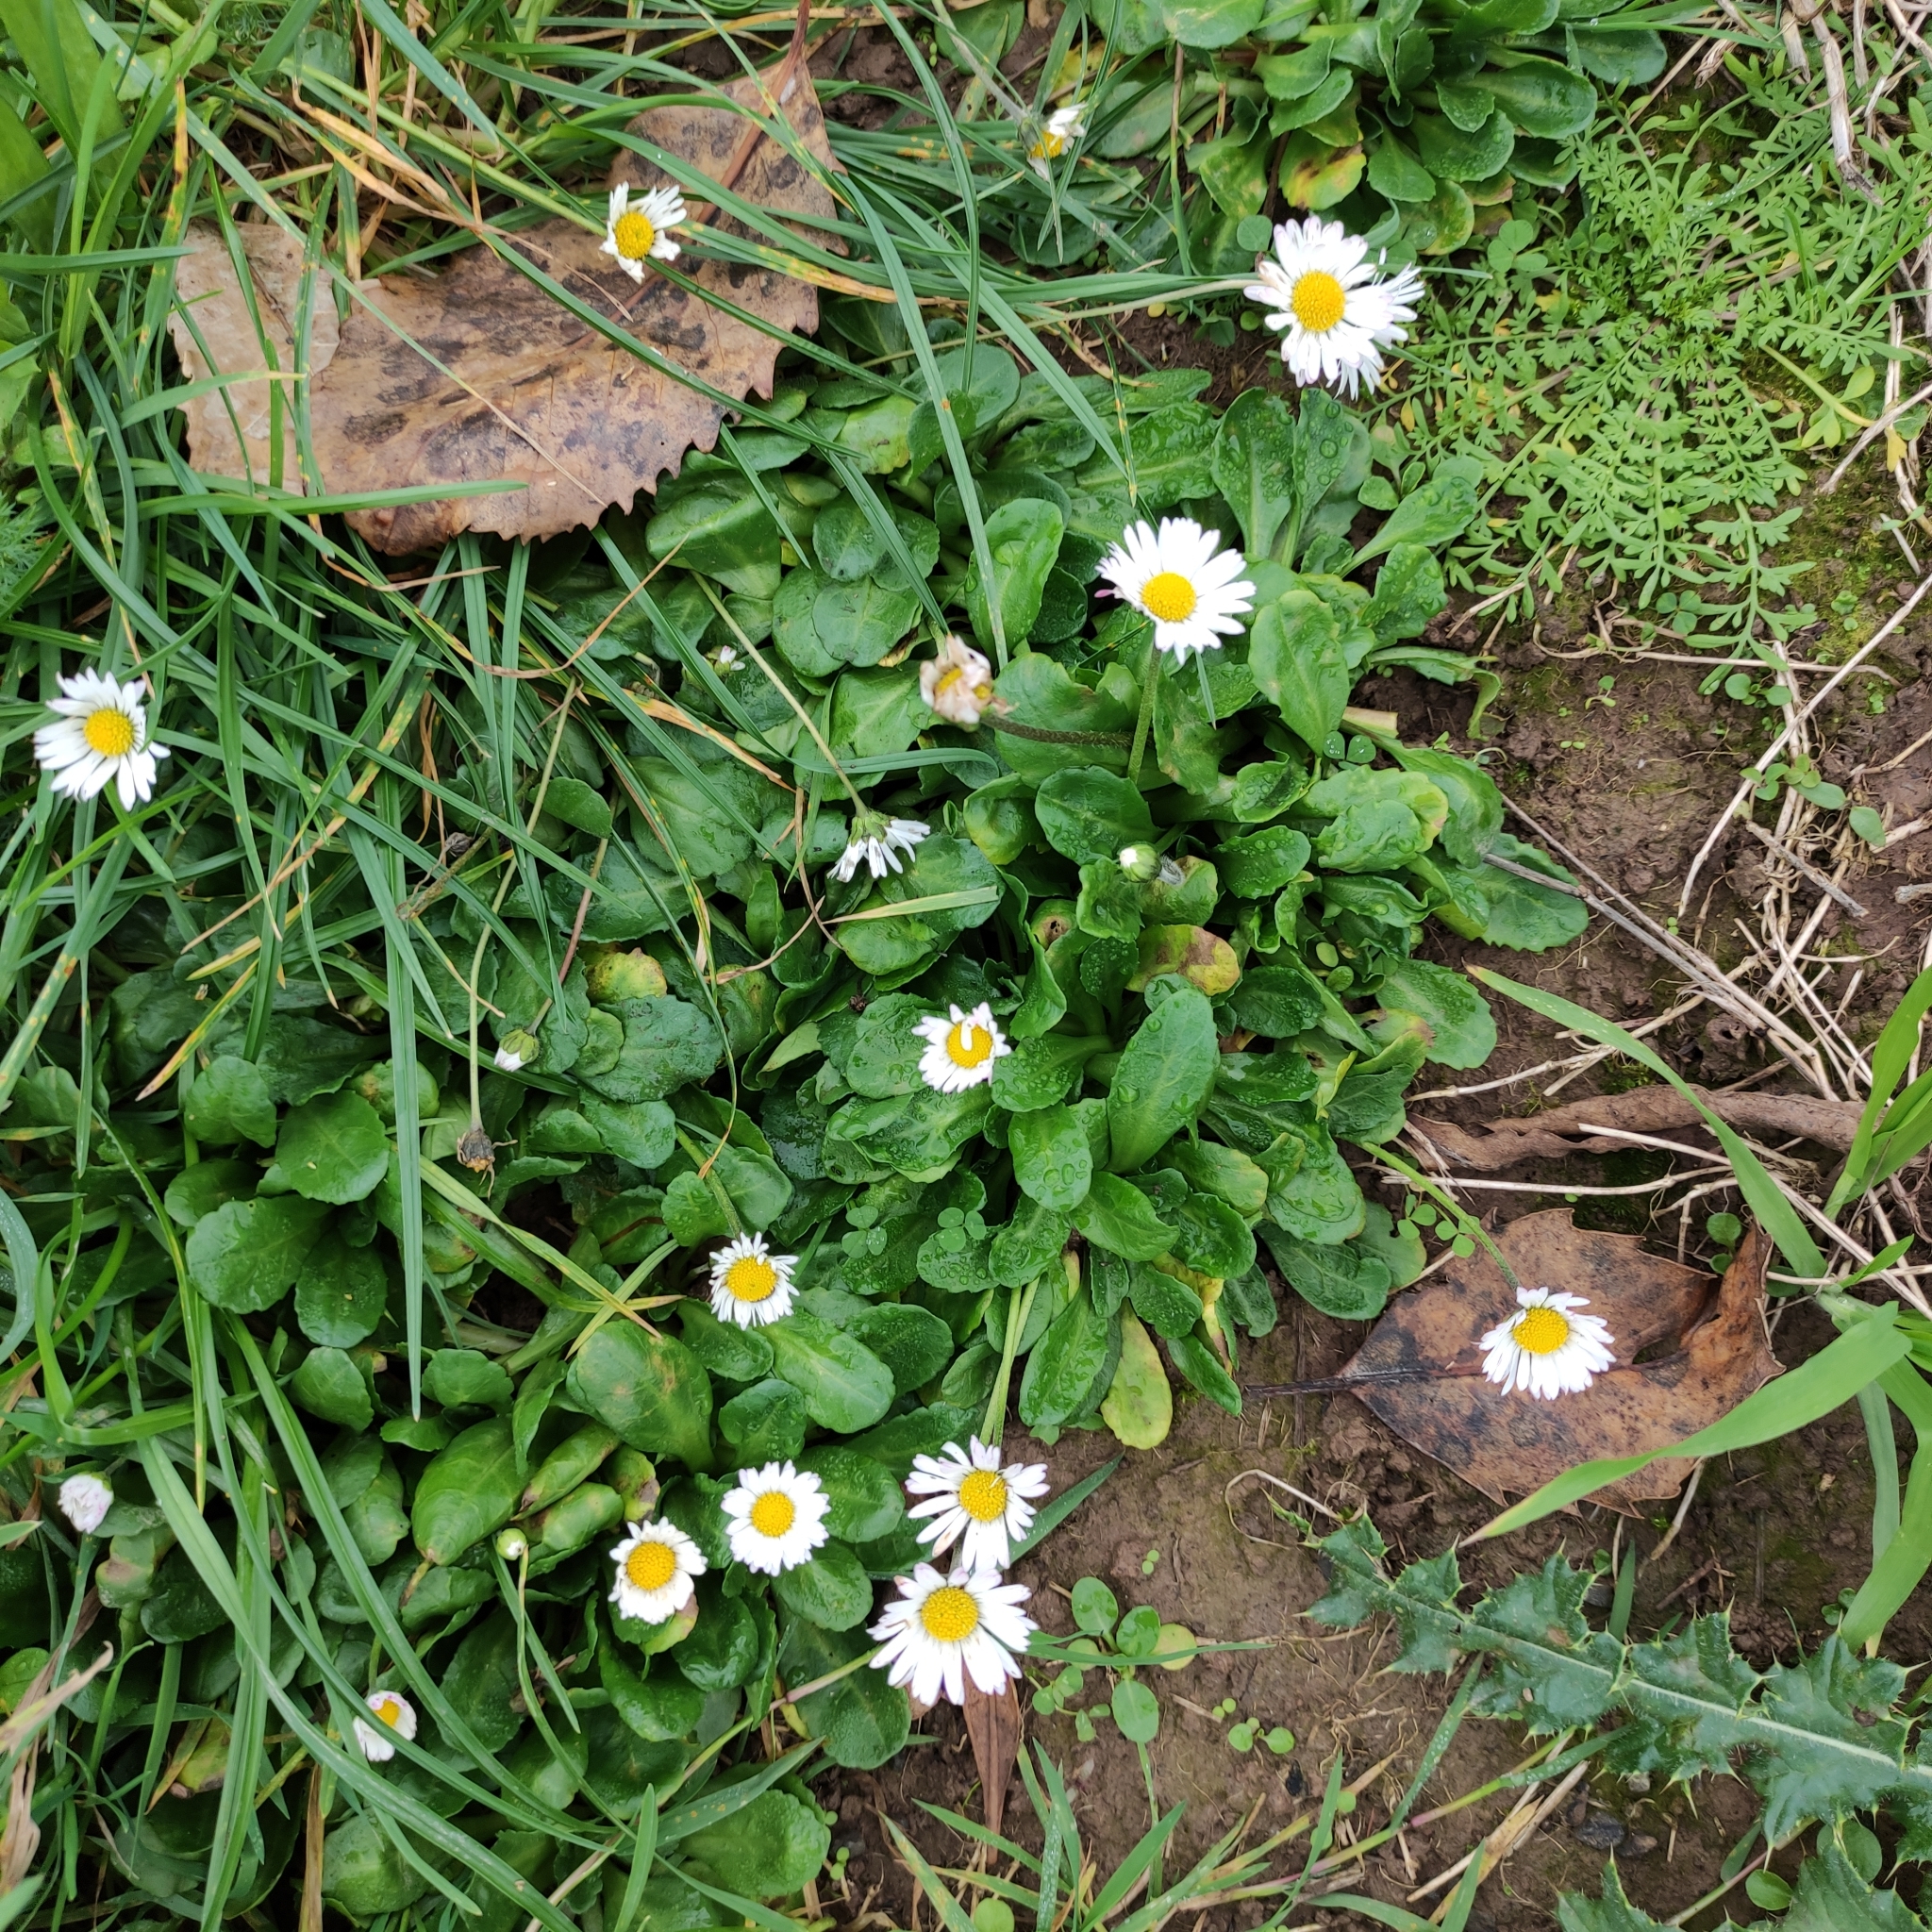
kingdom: Plantae
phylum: Tracheophyta
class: Magnoliopsida
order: Asterales
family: Asteraceae
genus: Bellis
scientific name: Bellis perennis
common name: Lawndaisy
